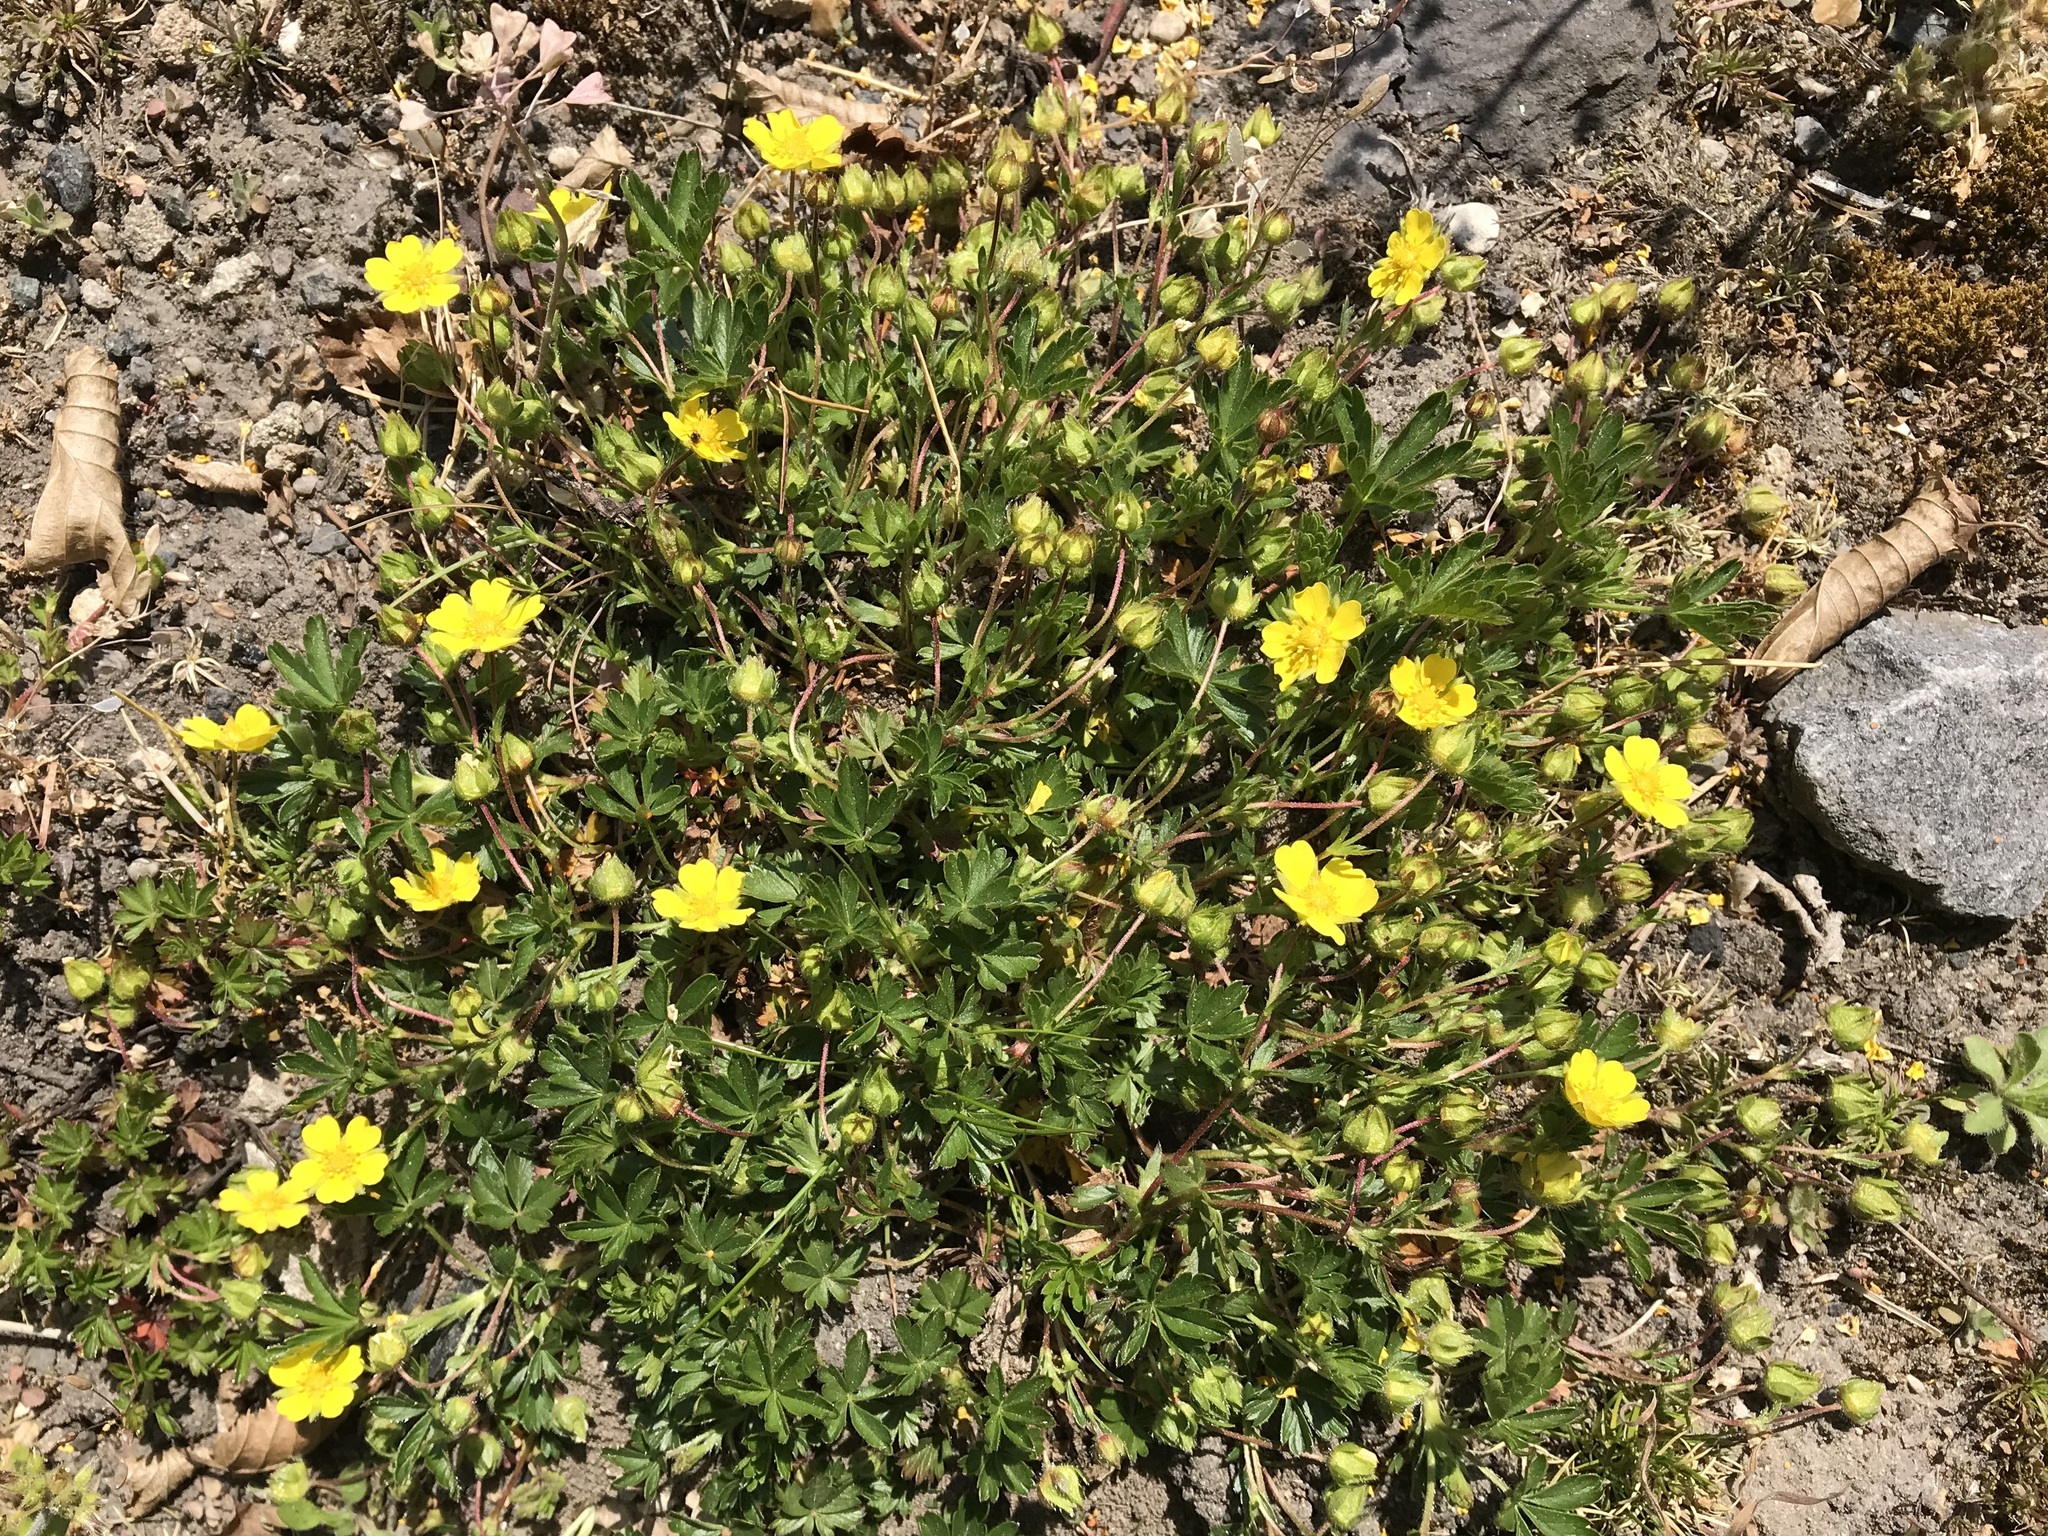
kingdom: Plantae
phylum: Tracheophyta
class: Magnoliopsida
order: Rosales
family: Rosaceae
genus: Potentilla
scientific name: Potentilla verna
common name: Spring cinquefoil
